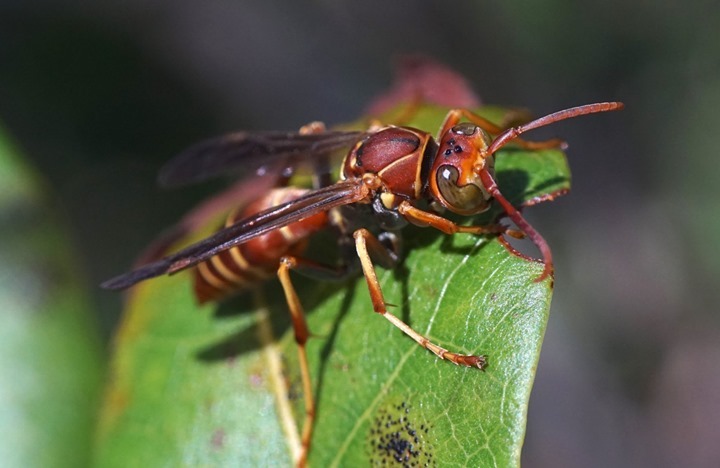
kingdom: Animalia
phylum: Arthropoda
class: Insecta
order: Hymenoptera
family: Eumenidae
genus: Polistes
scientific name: Polistes dorsalis
